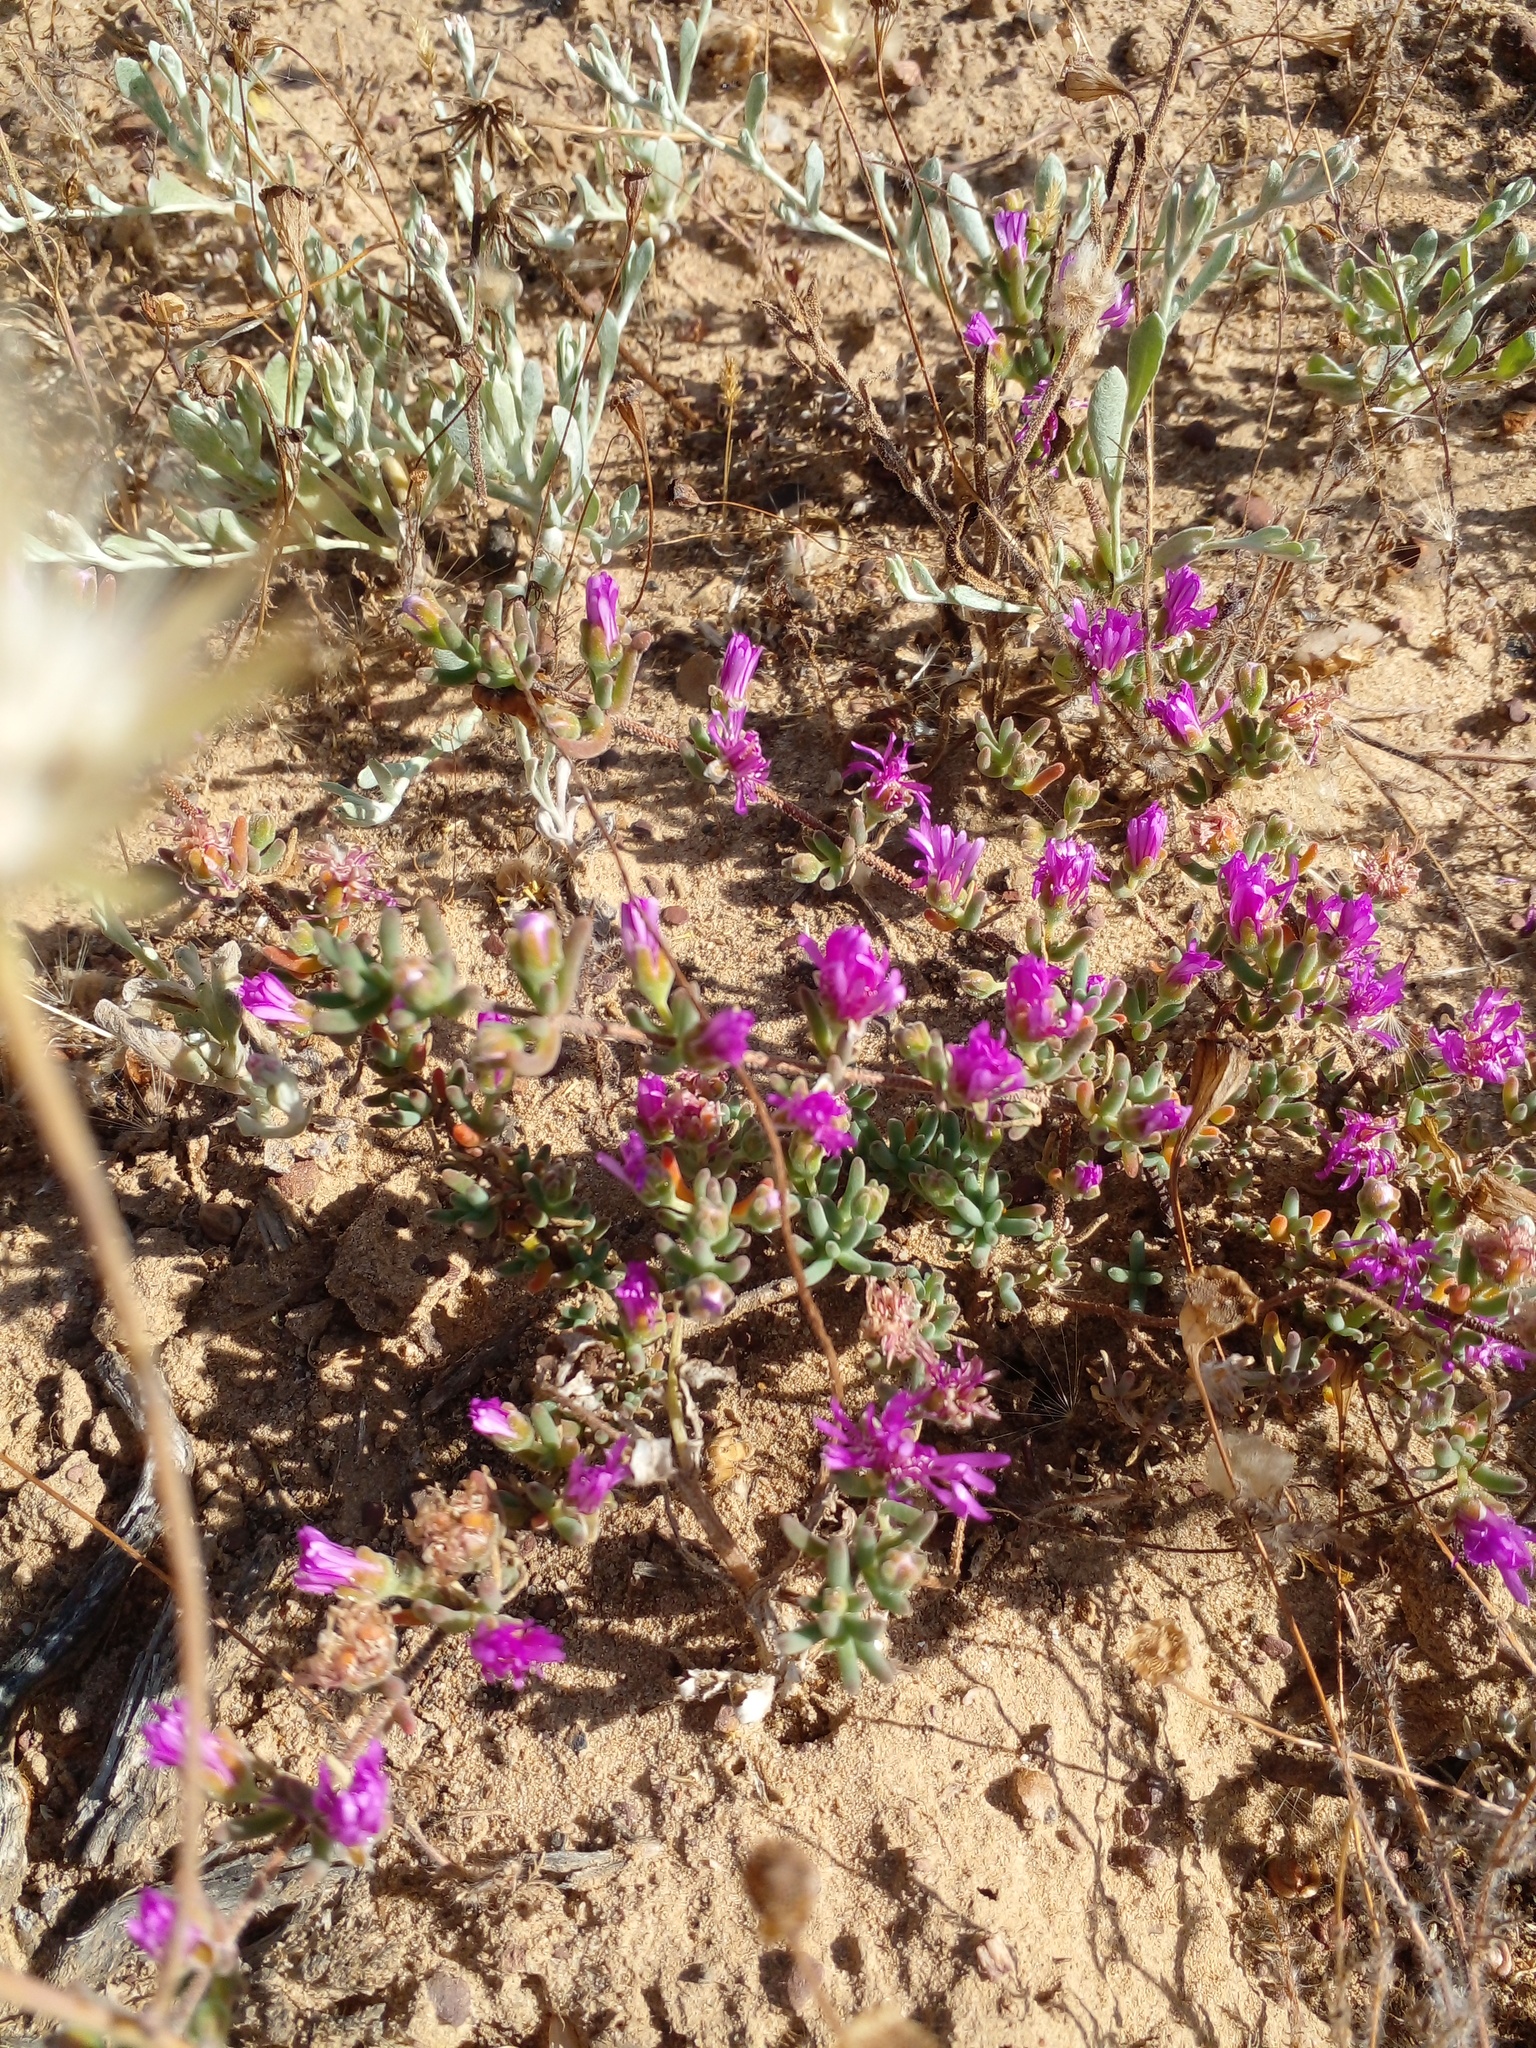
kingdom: Plantae
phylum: Tracheophyta
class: Magnoliopsida
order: Caryophyllales
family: Aizoaceae
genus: Drosanthemum
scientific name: Drosanthemum ambiguum
